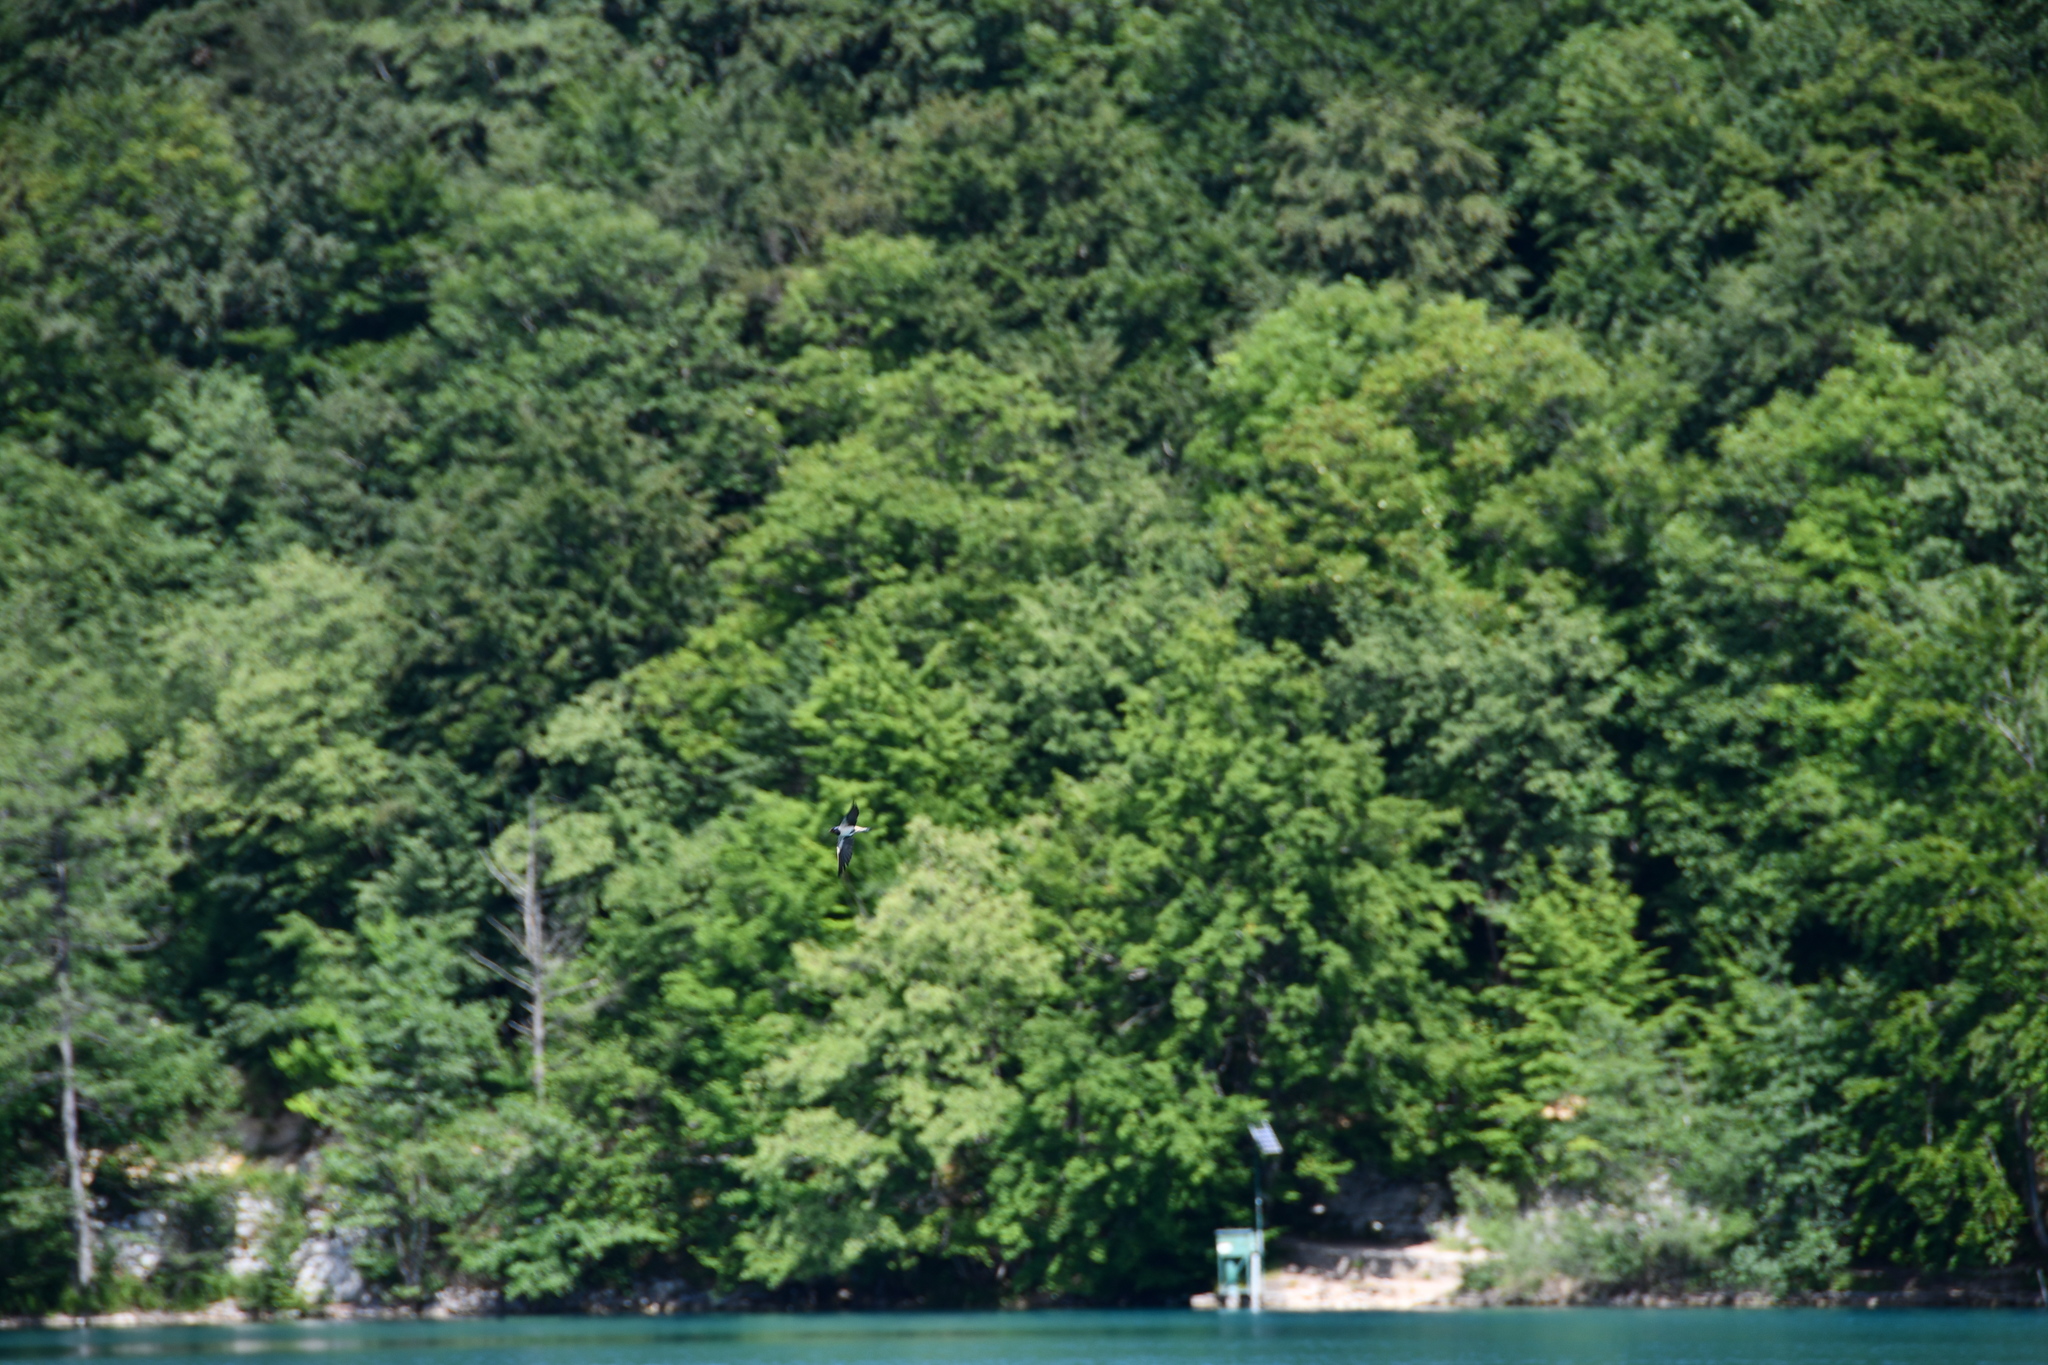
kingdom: Animalia
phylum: Chordata
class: Aves
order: Passeriformes
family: Hirundinidae
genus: Hirundo
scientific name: Hirundo rustica
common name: Barn swallow
